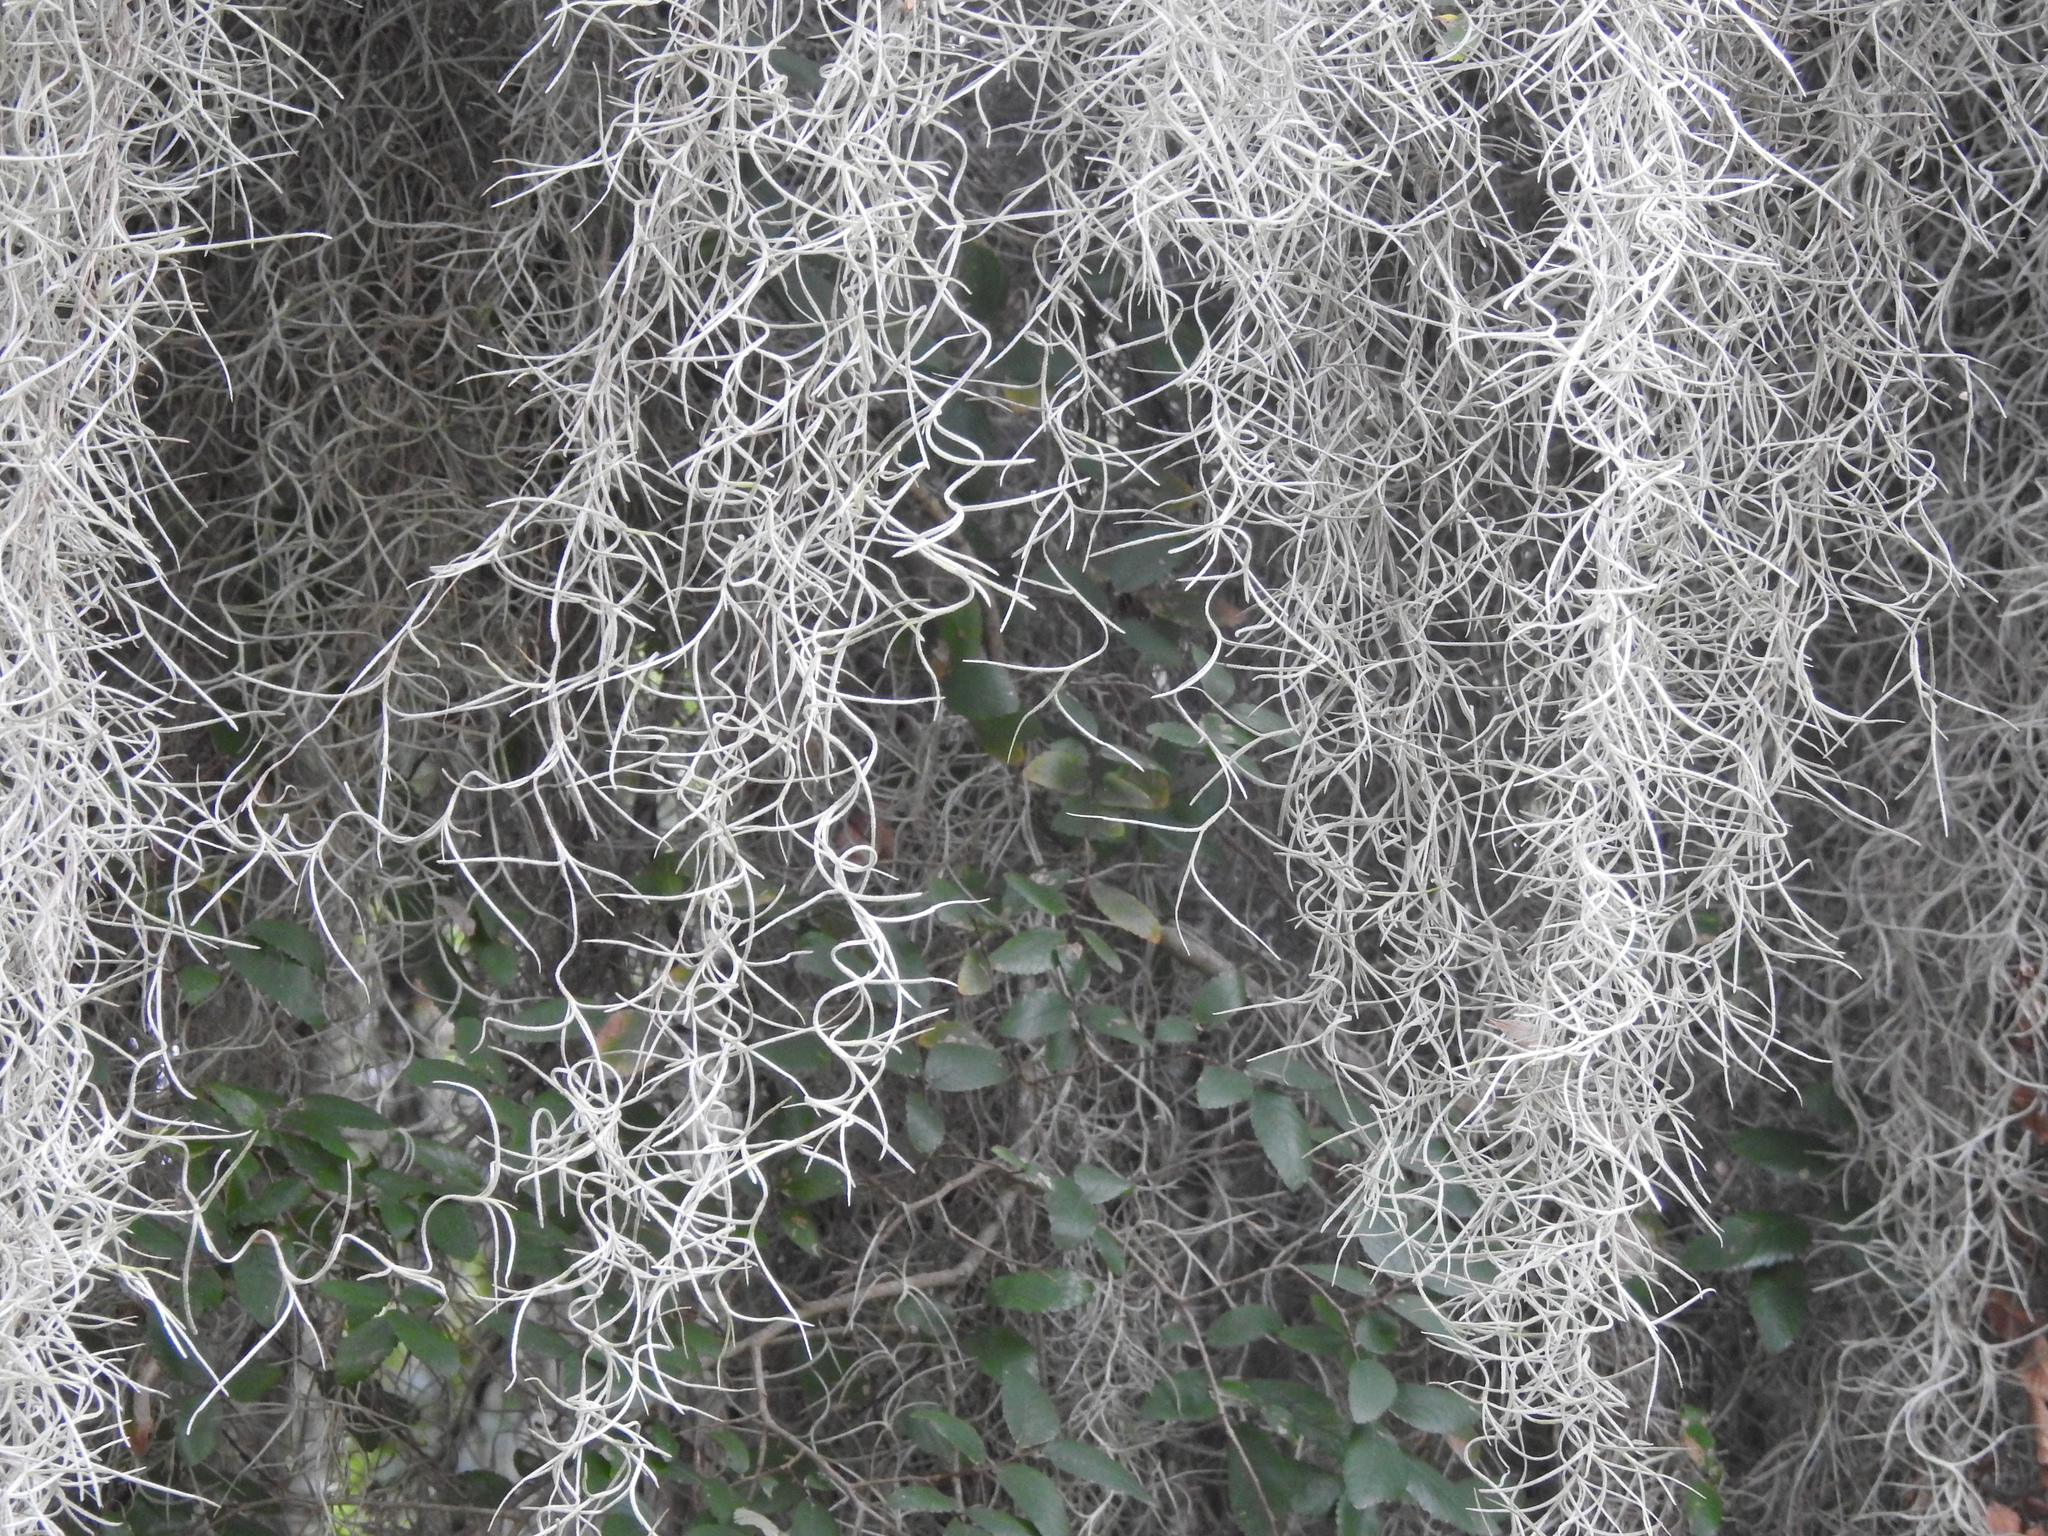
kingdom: Plantae
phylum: Tracheophyta
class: Liliopsida
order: Poales
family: Bromeliaceae
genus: Tillandsia
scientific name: Tillandsia usneoides
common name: Spanish moss
